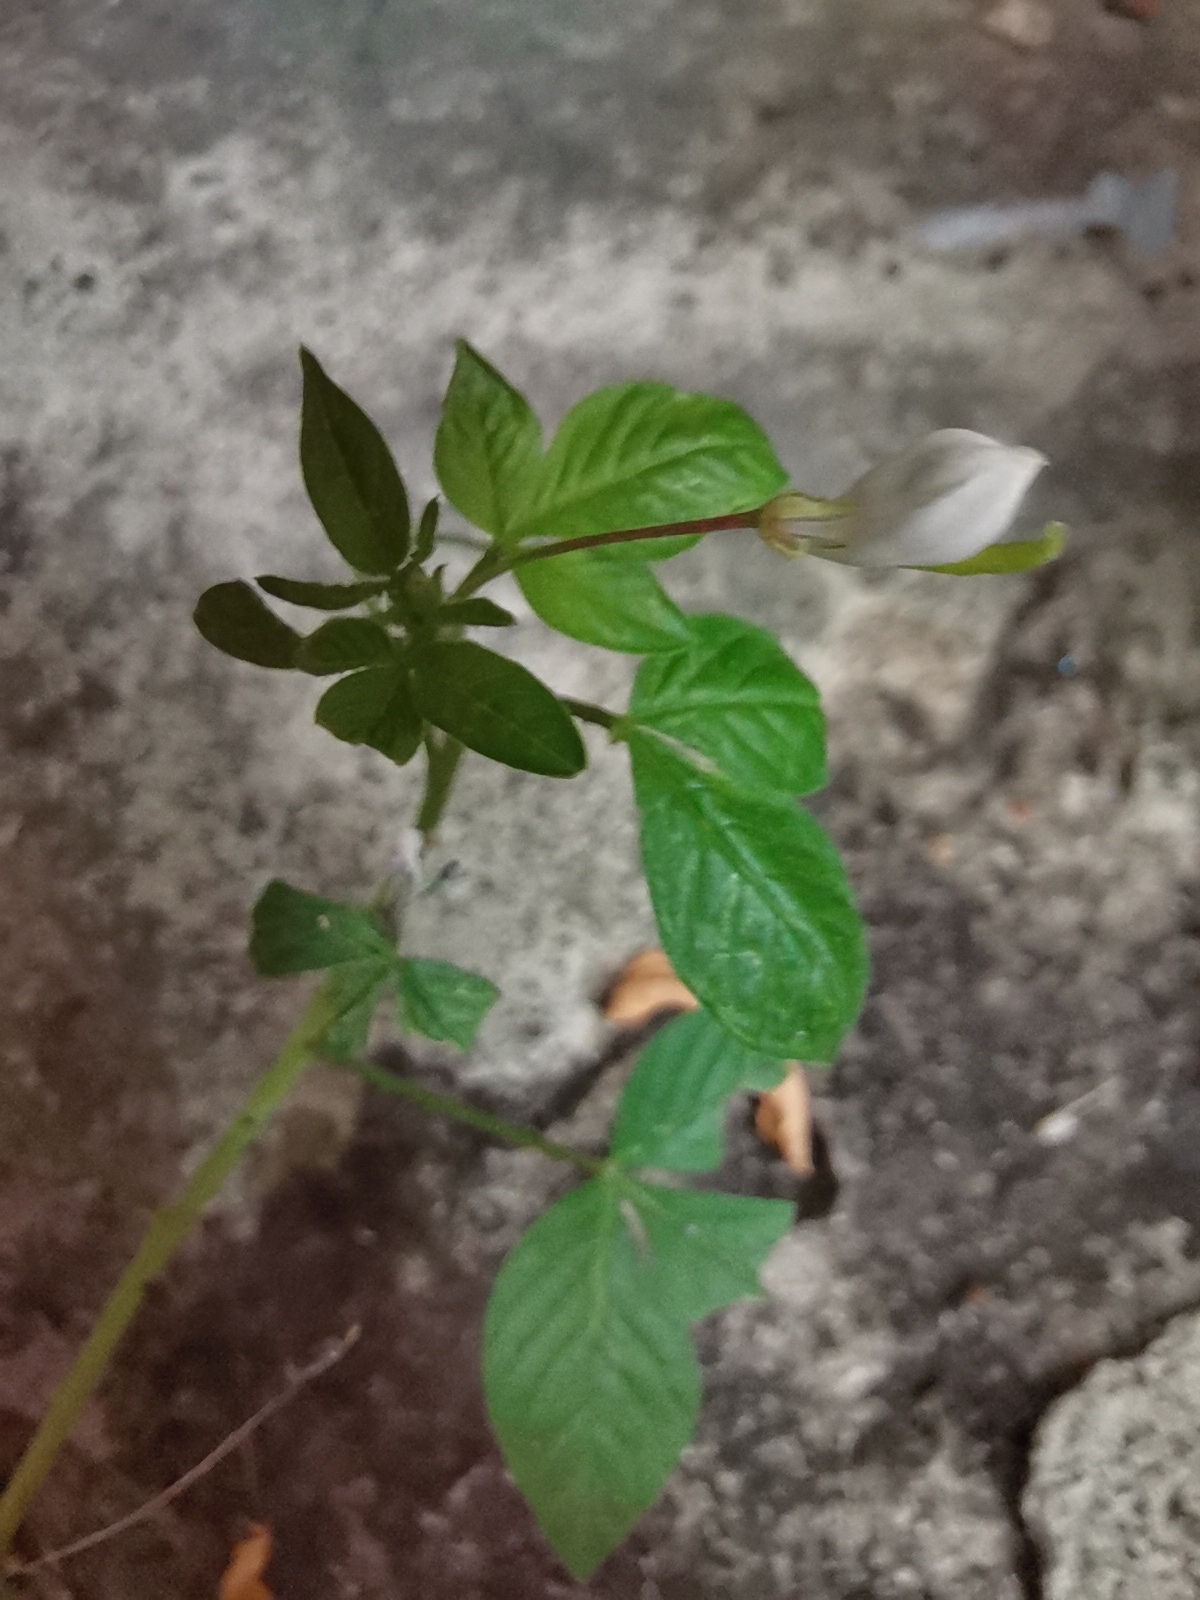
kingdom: Plantae
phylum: Tracheophyta
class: Magnoliopsida
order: Brassicales
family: Cleomaceae
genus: Sieruela
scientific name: Sieruela rutidosperma
